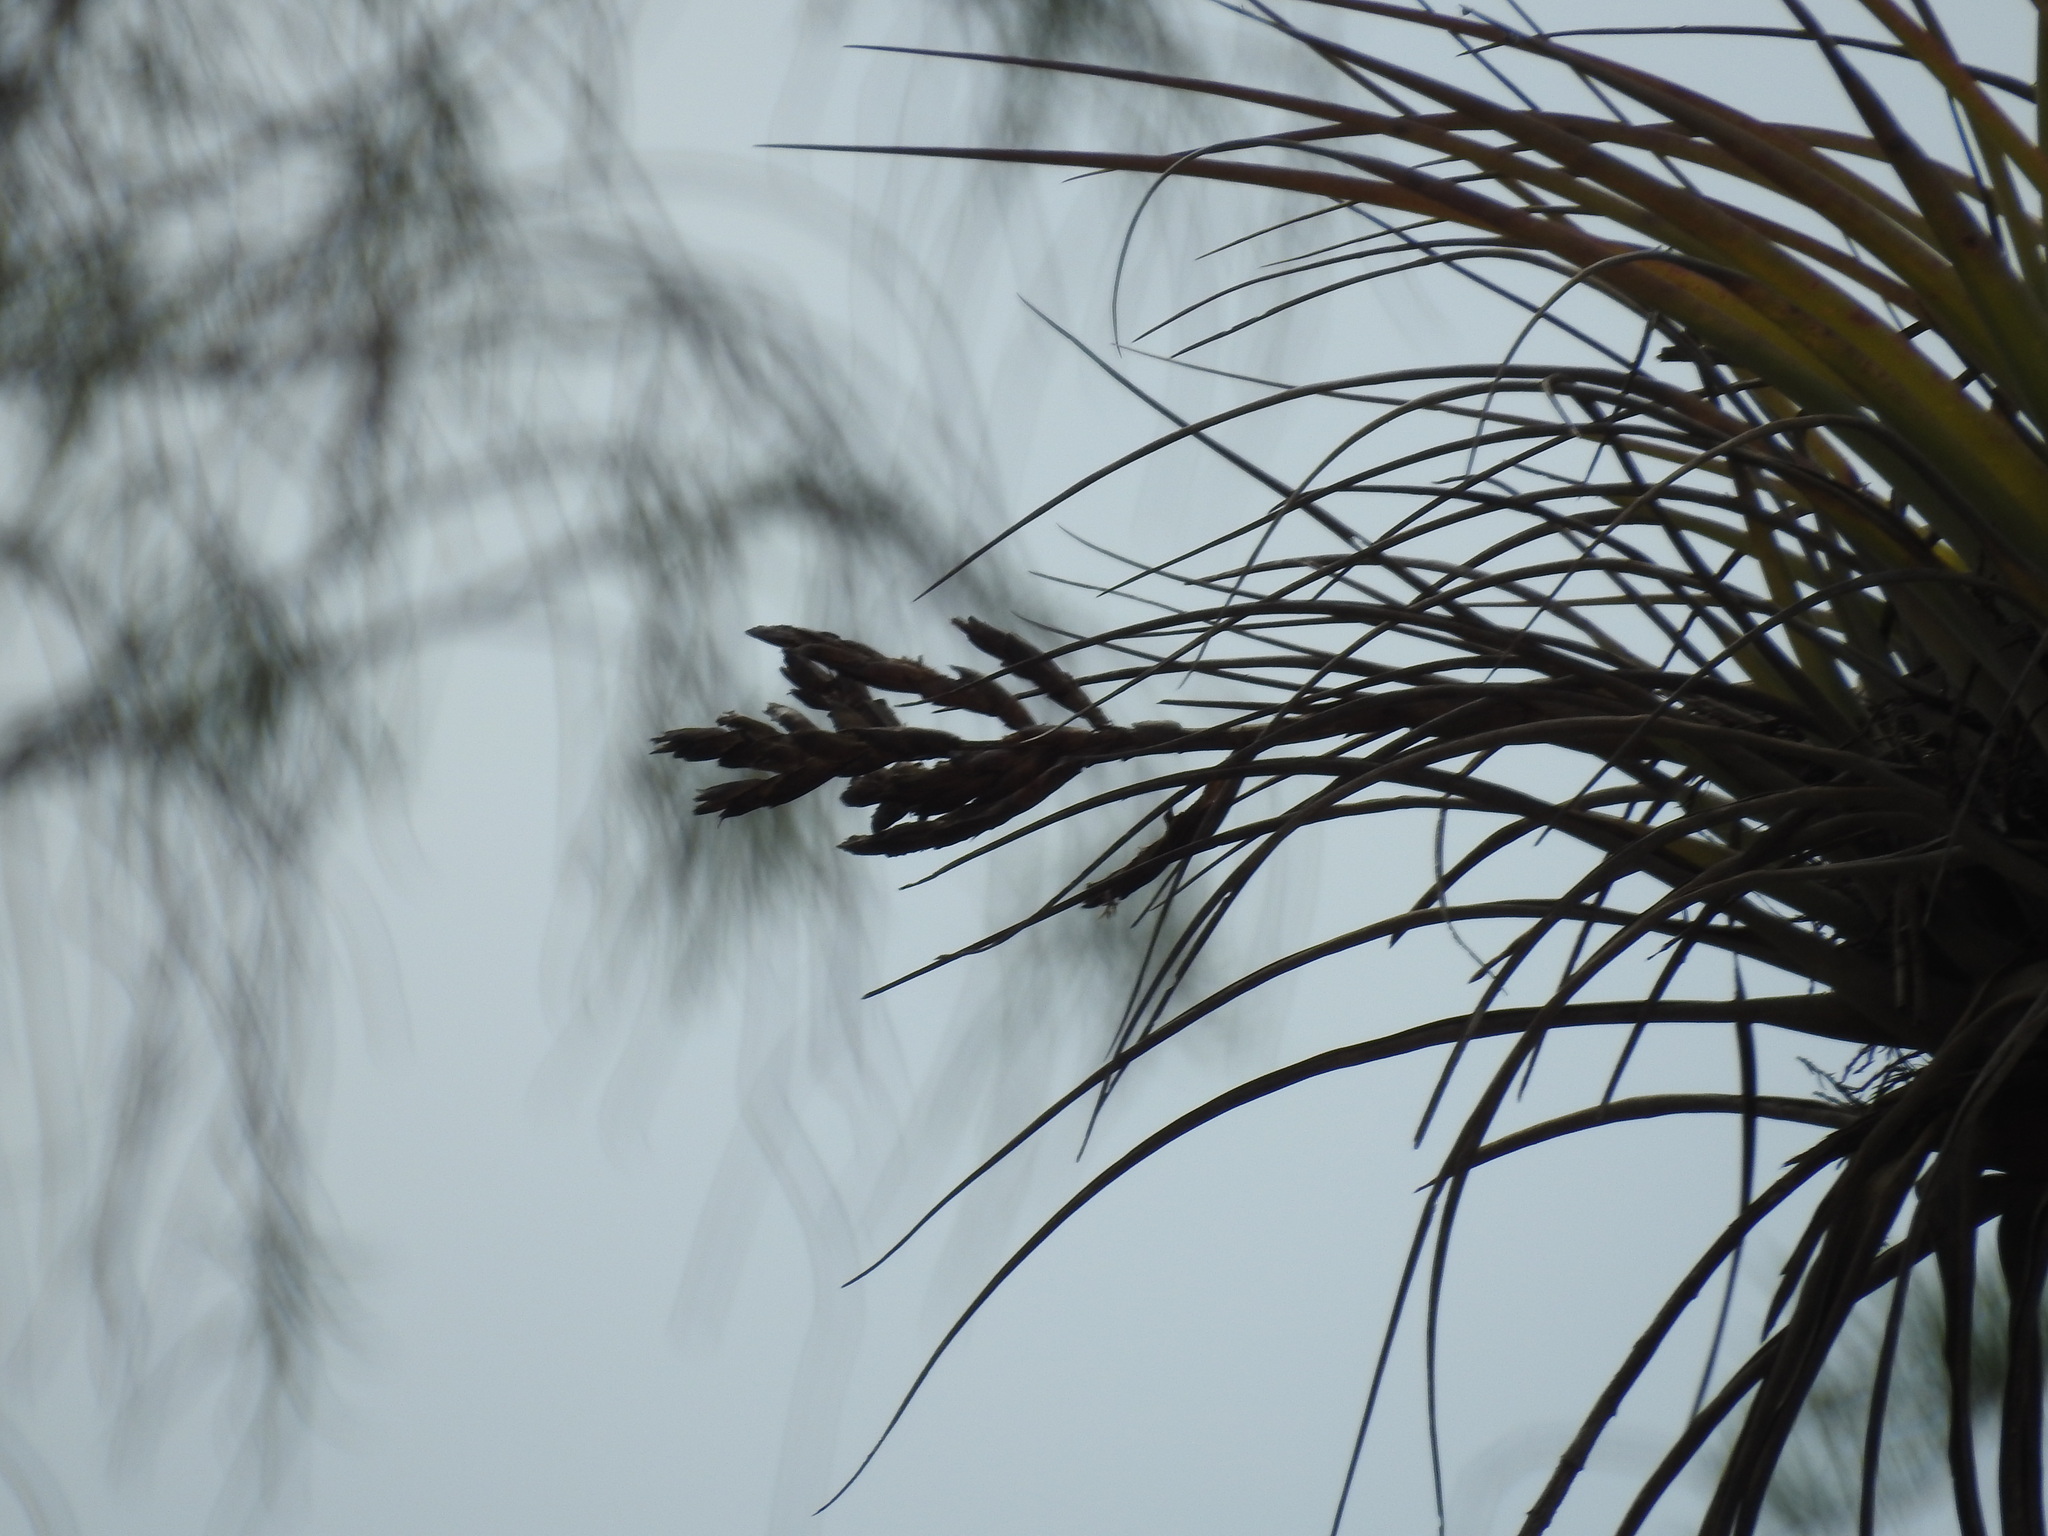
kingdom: Plantae
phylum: Tracheophyta
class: Liliopsida
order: Poales
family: Bromeliaceae
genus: Tillandsia
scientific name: Tillandsia fasciculata
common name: Giant airplant
